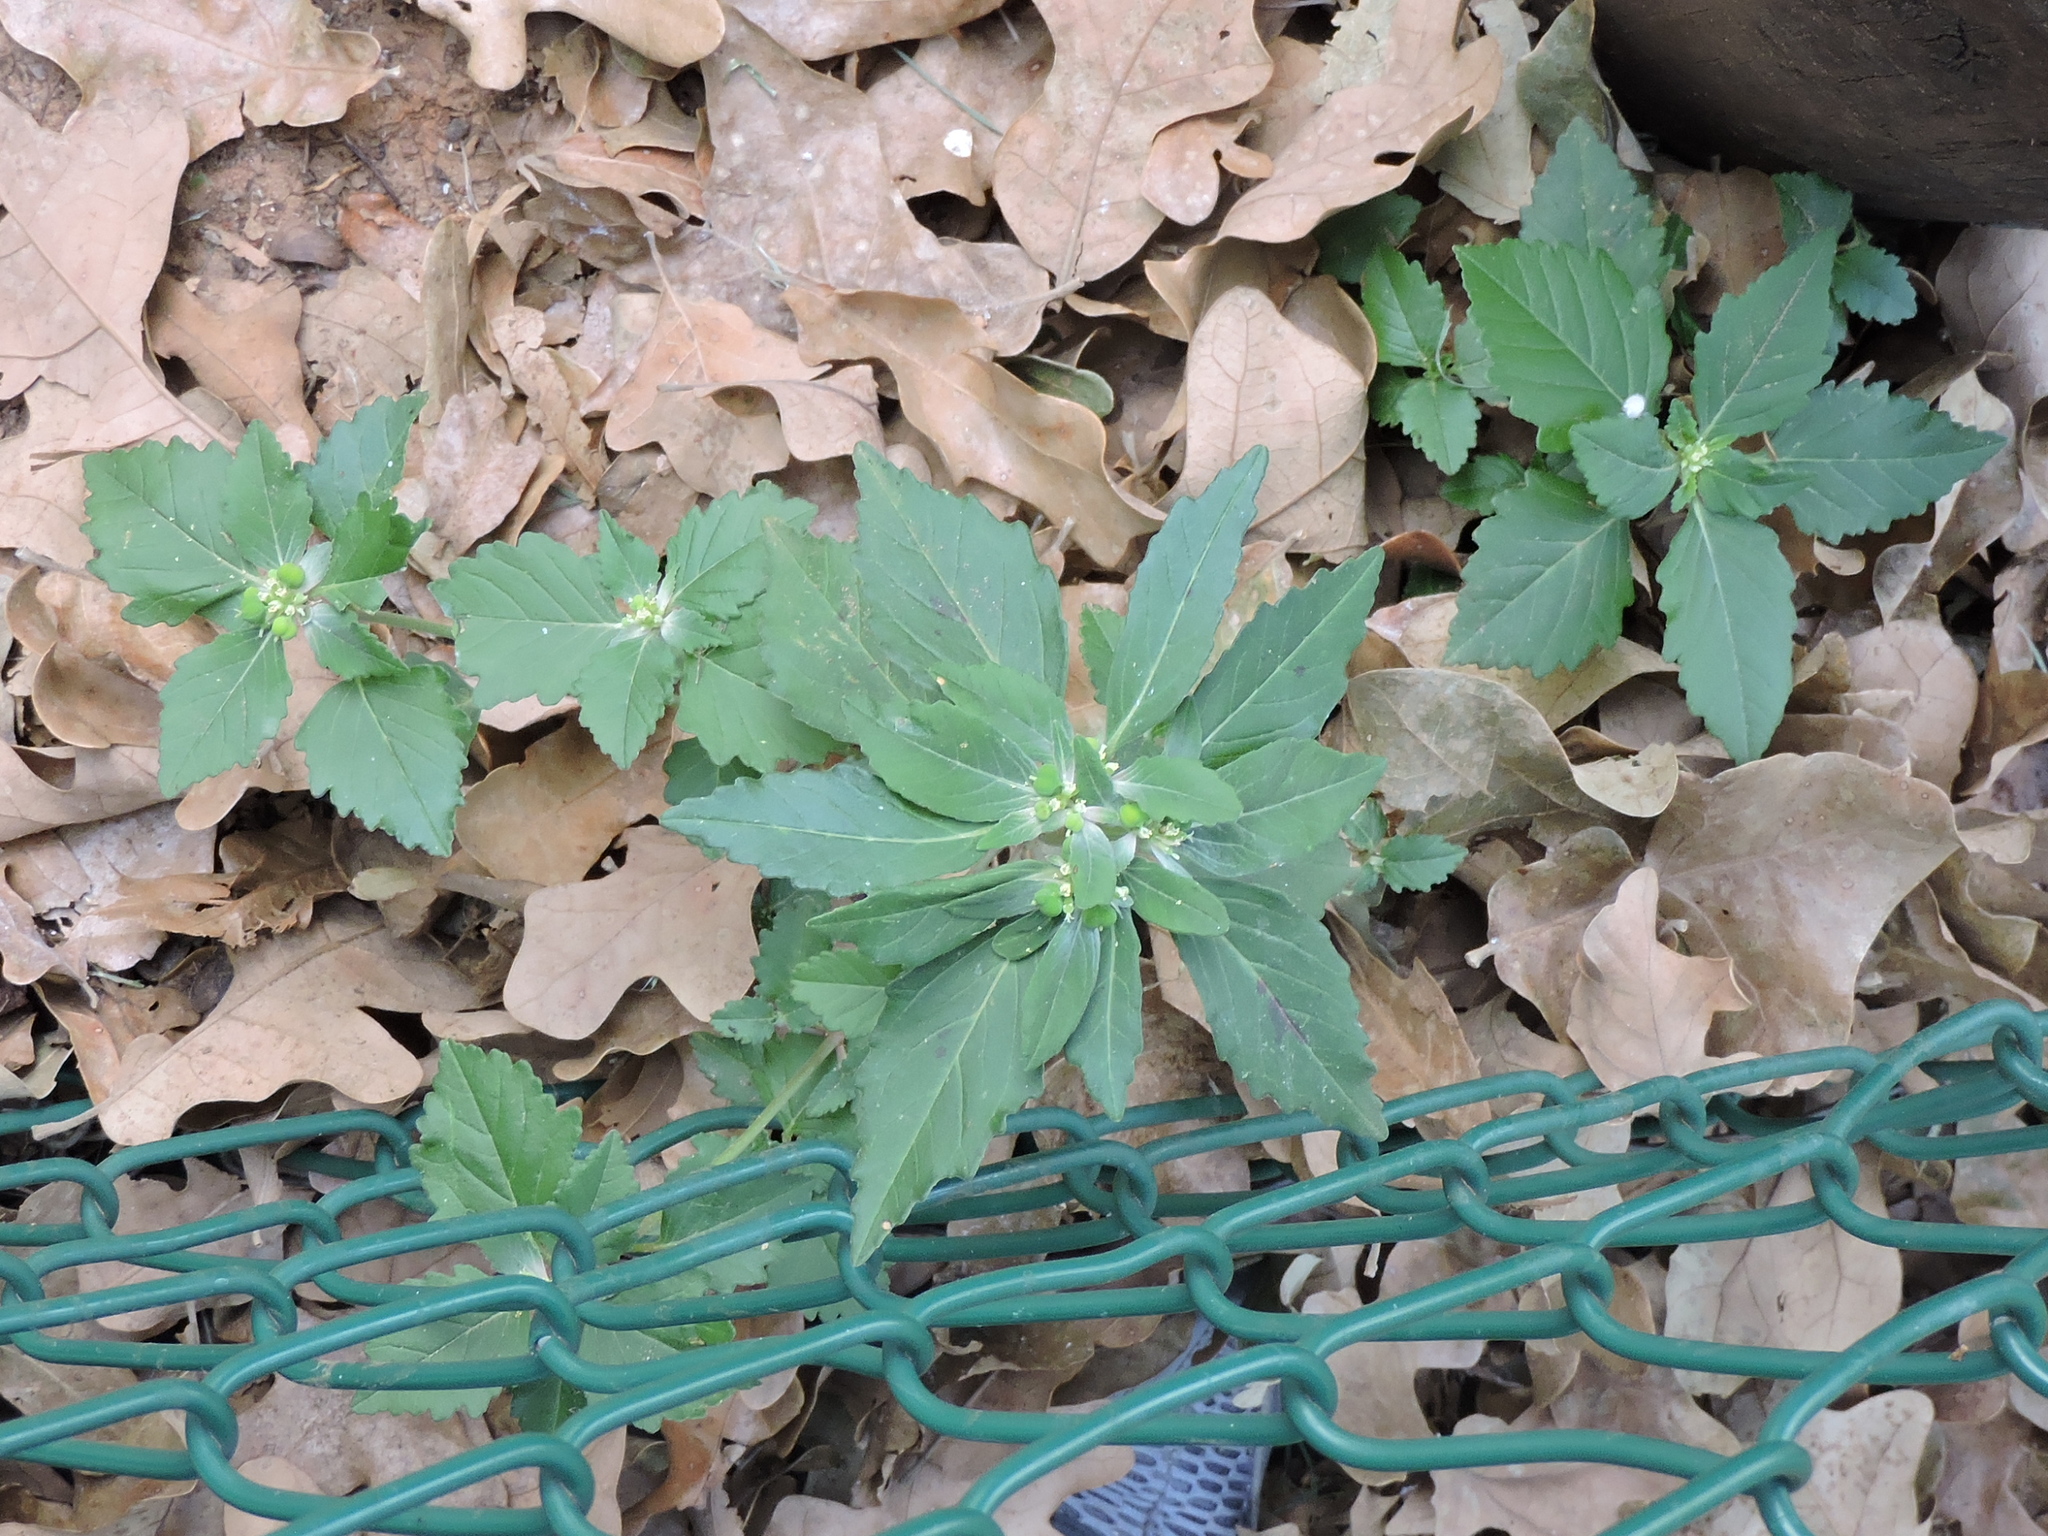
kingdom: Plantae
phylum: Tracheophyta
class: Magnoliopsida
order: Malpighiales
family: Euphorbiaceae
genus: Euphorbia
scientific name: Euphorbia dentata
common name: Dentate spurge
